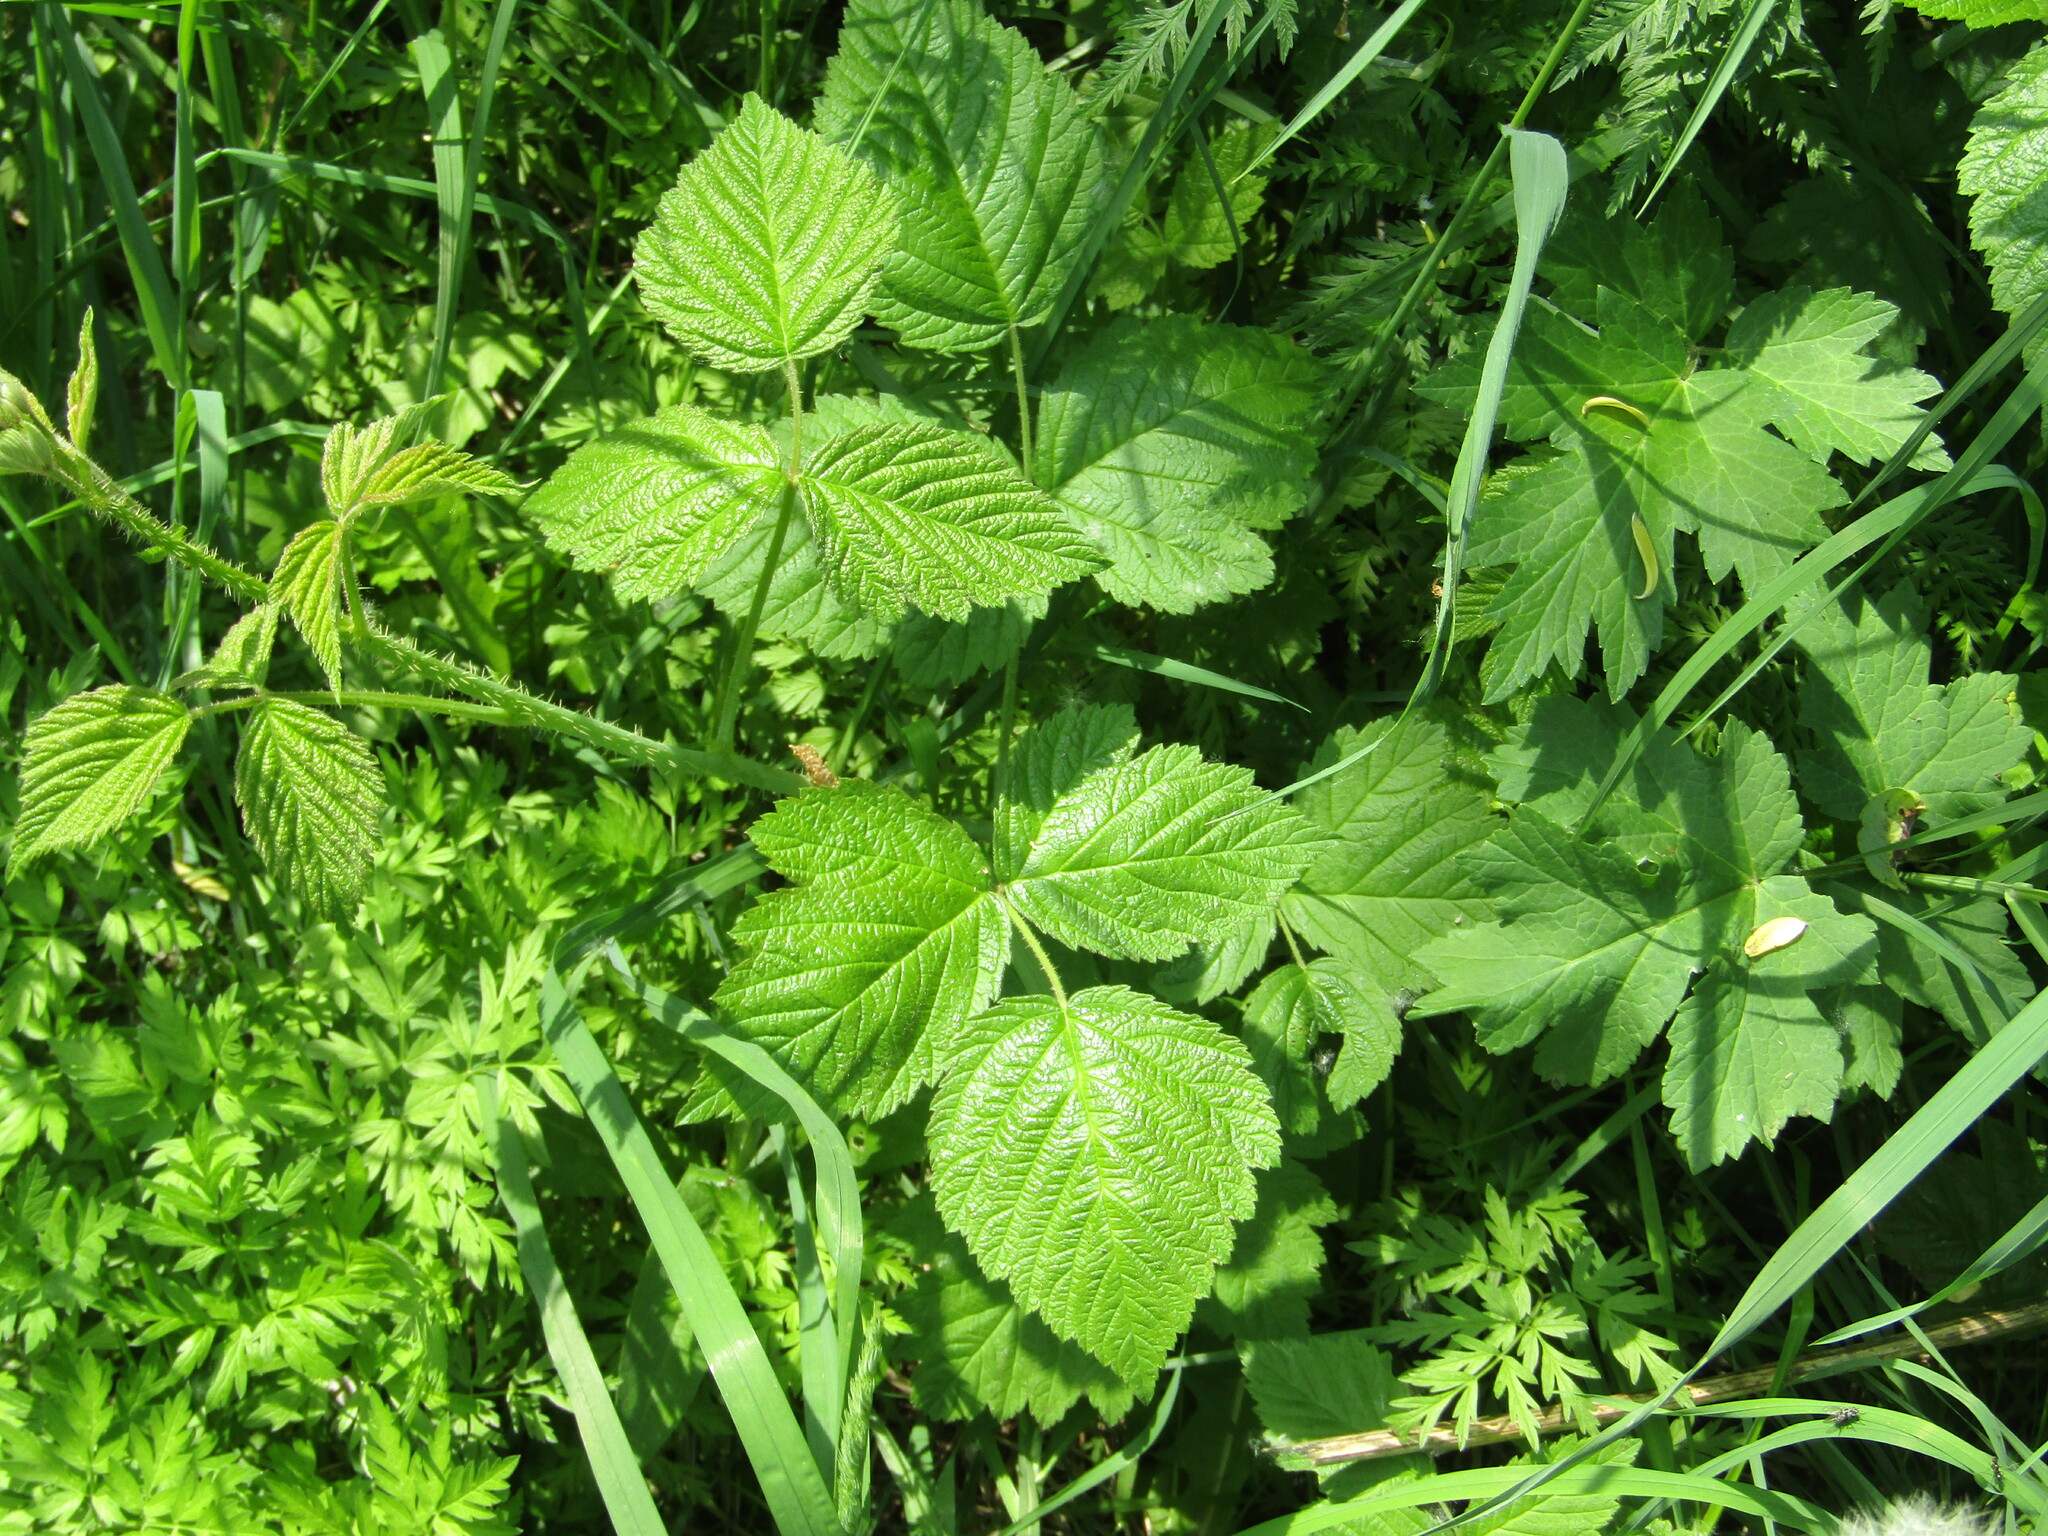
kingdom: Plantae
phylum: Tracheophyta
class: Magnoliopsida
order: Rosales
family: Rosaceae
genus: Rubus
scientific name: Rubus caesius
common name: Dewberry
